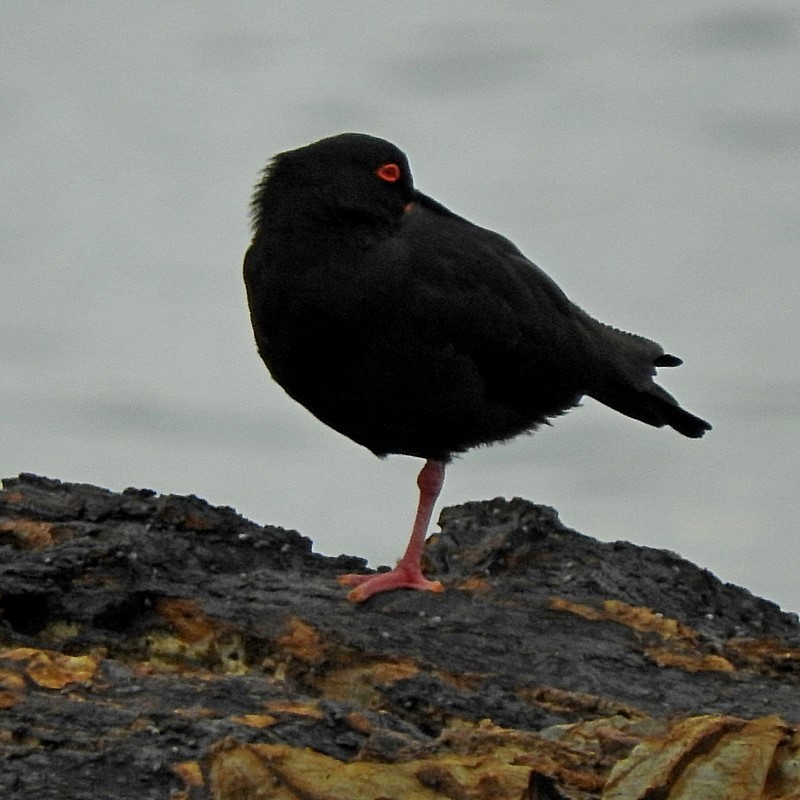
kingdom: Animalia
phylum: Chordata
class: Aves
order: Charadriiformes
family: Haematopodidae
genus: Haematopus
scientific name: Haematopus fuliginosus
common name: Sooty oystercatcher
